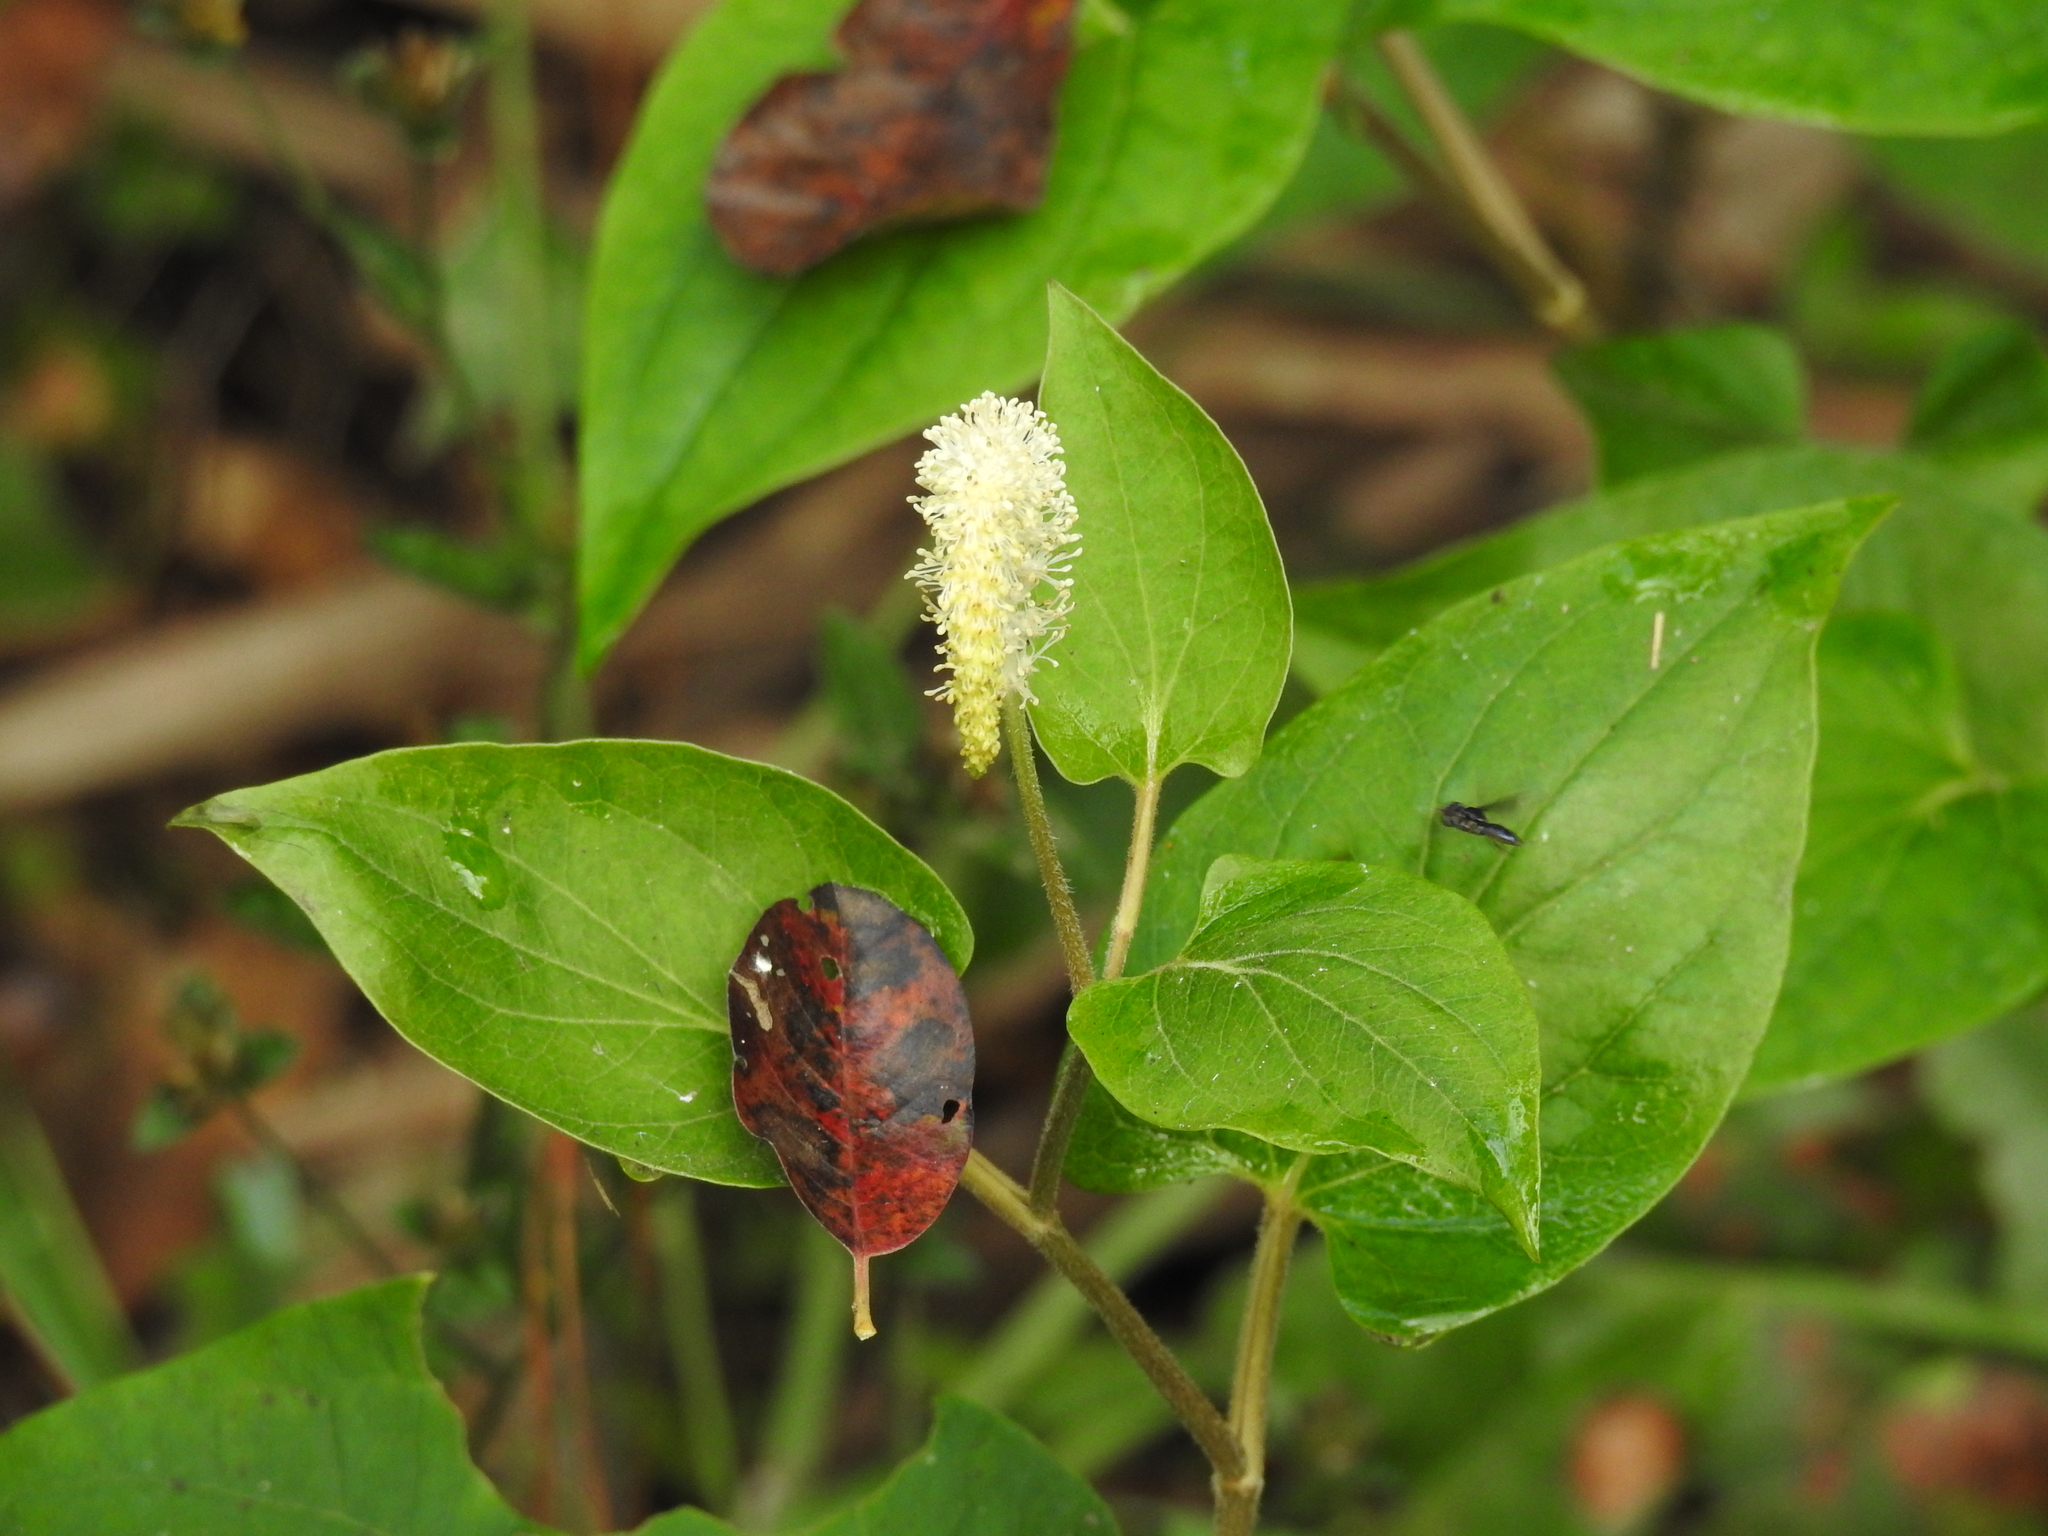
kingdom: Plantae
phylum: Tracheophyta
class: Magnoliopsida
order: Piperales
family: Saururaceae
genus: Saururus
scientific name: Saururus cernuus
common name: Lizard's-tail
